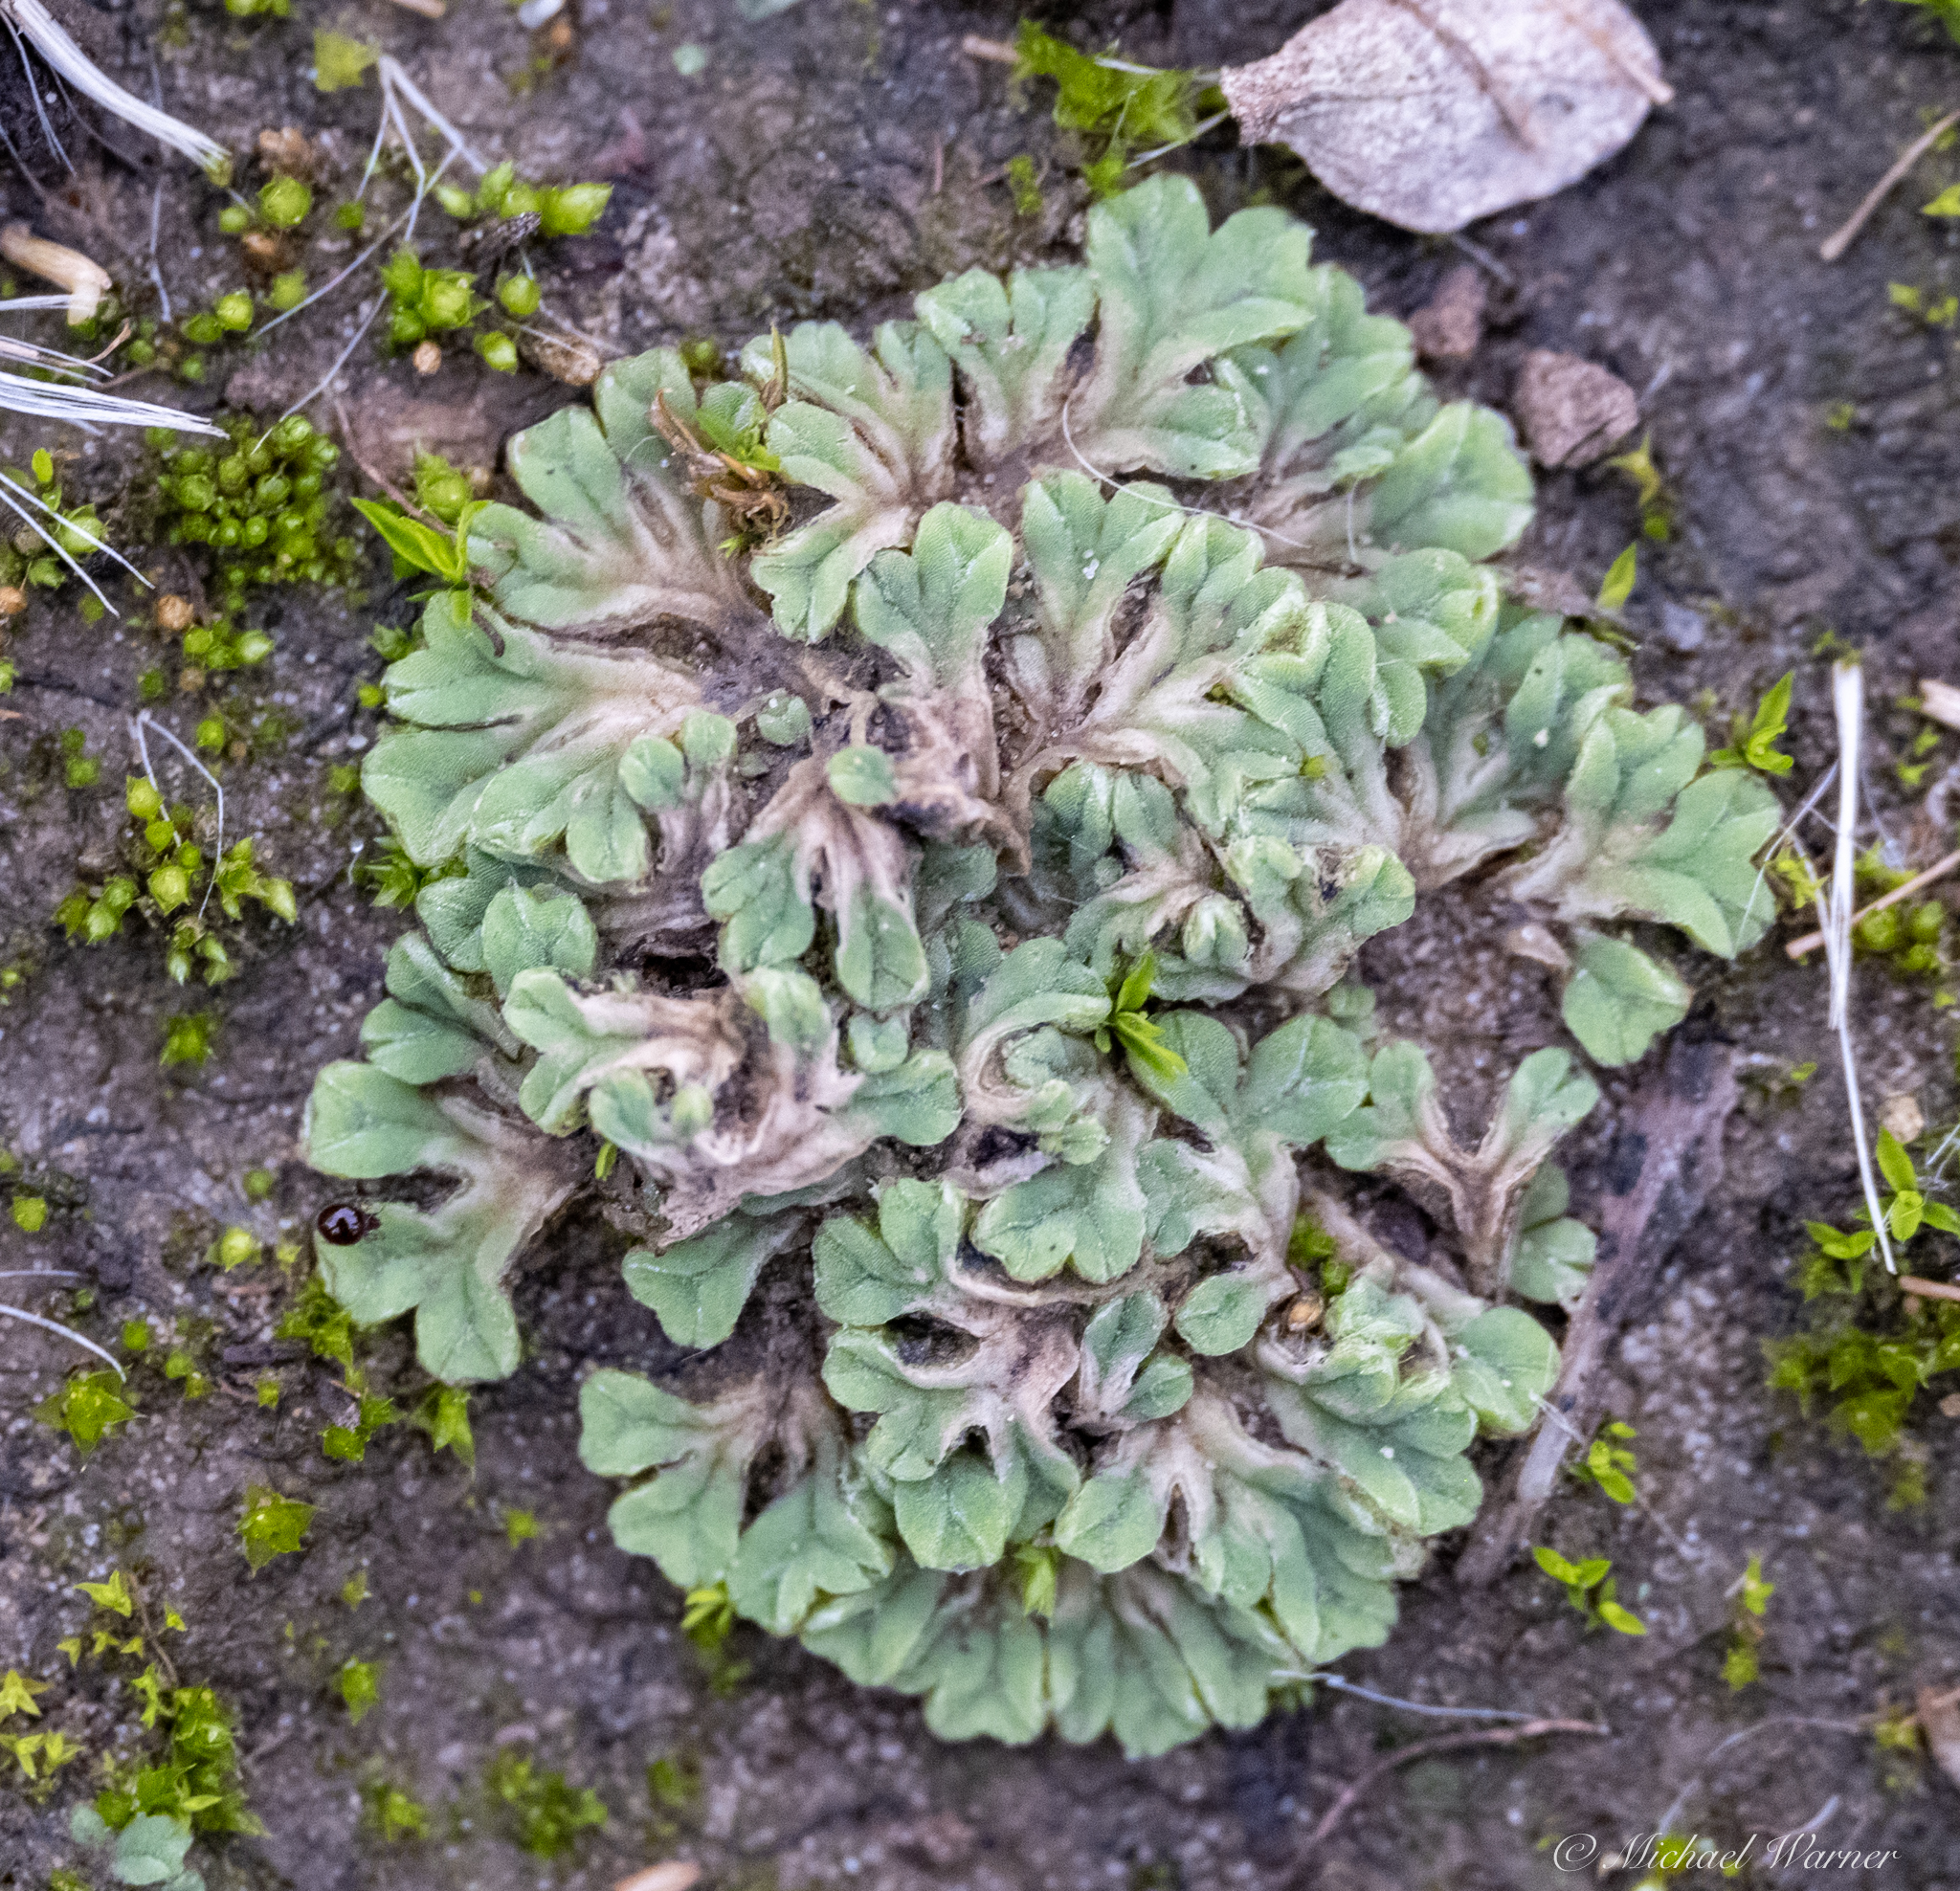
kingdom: Plantae
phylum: Marchantiophyta
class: Marchantiopsida
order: Marchantiales
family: Ricciaceae
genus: Riccia
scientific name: Riccia lamellosa
